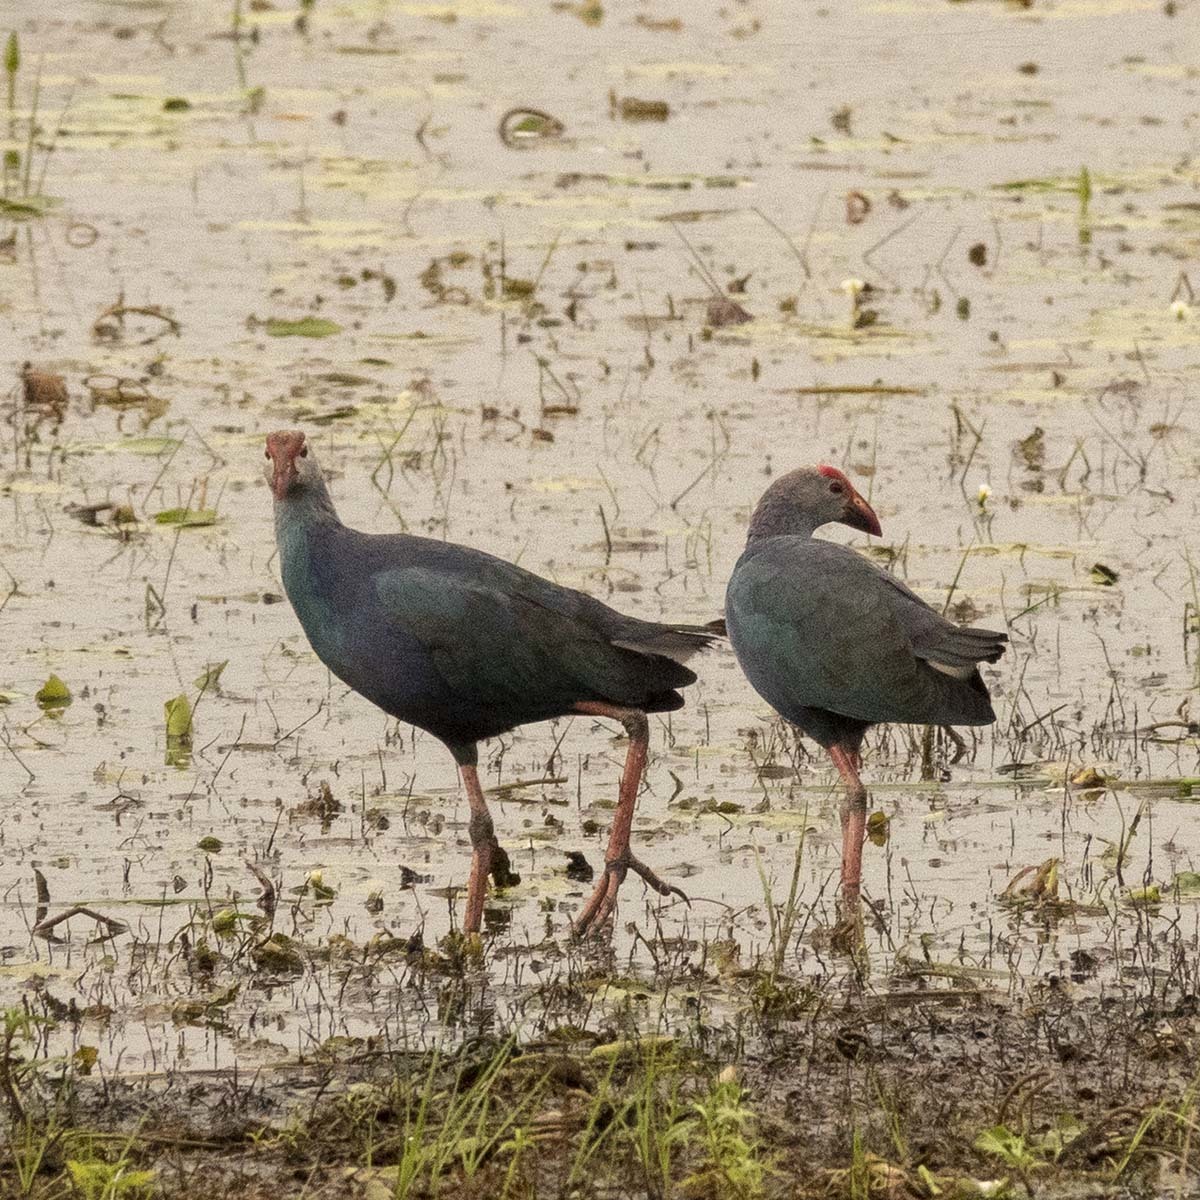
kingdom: Animalia
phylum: Chordata
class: Aves
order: Gruiformes
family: Rallidae
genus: Porphyrio
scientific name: Porphyrio porphyrio
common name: Purple swamphen
